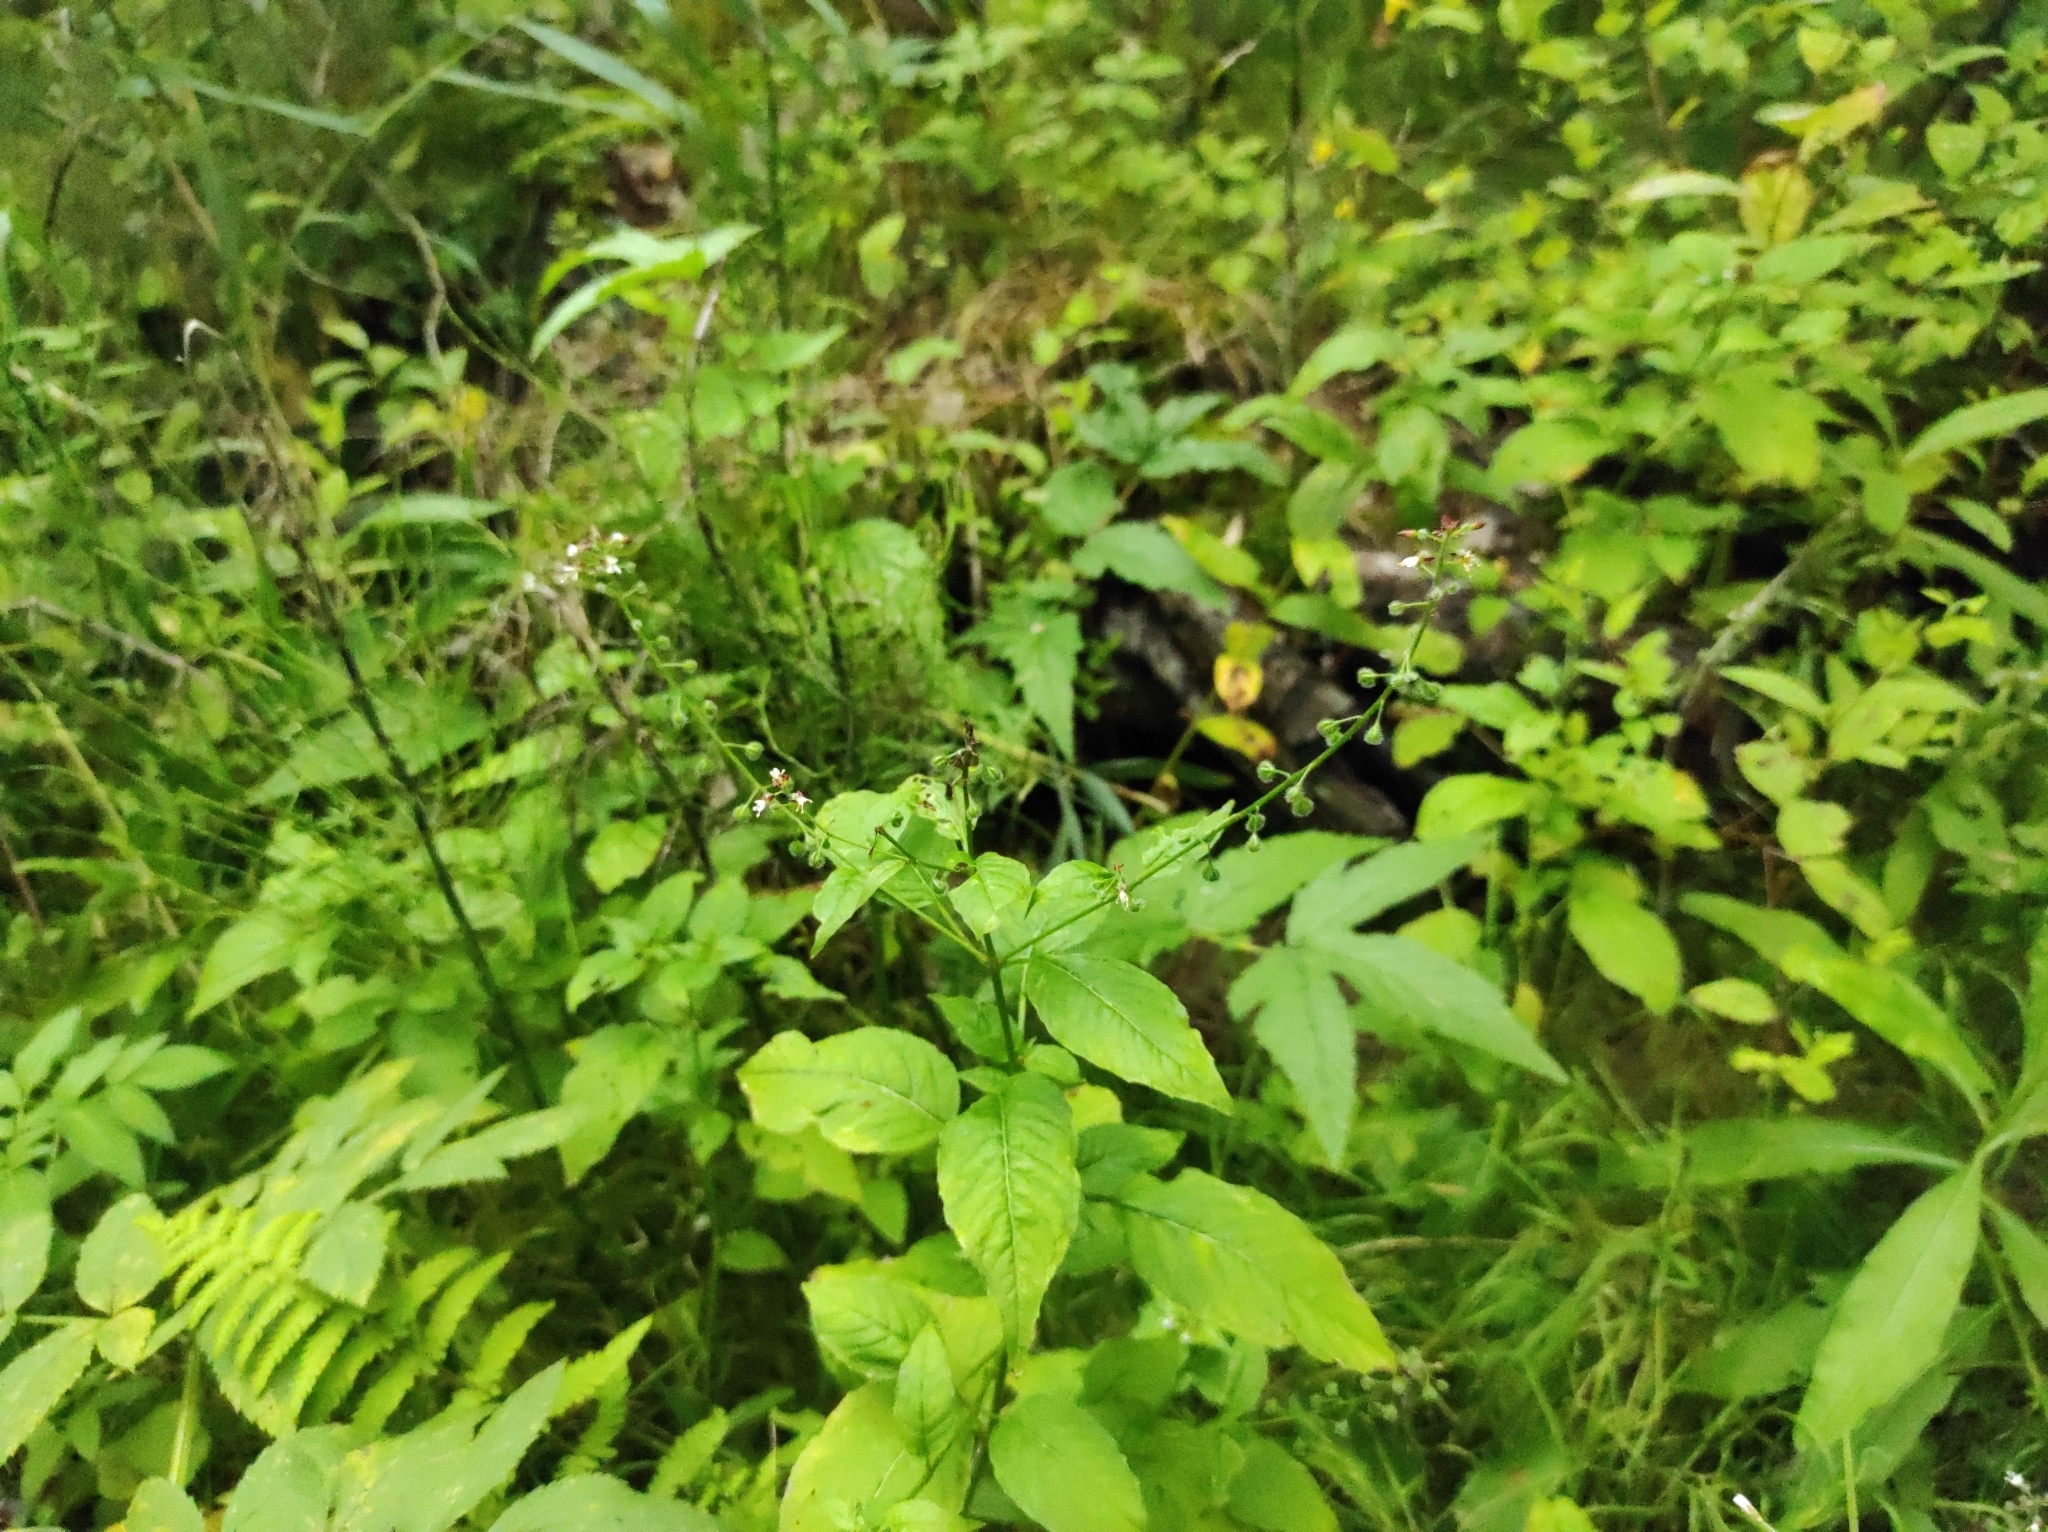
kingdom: Plantae
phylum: Tracheophyta
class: Magnoliopsida
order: Myrtales
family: Onagraceae
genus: Circaea
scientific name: Circaea lutetiana
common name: Enchanter's-nightshade
